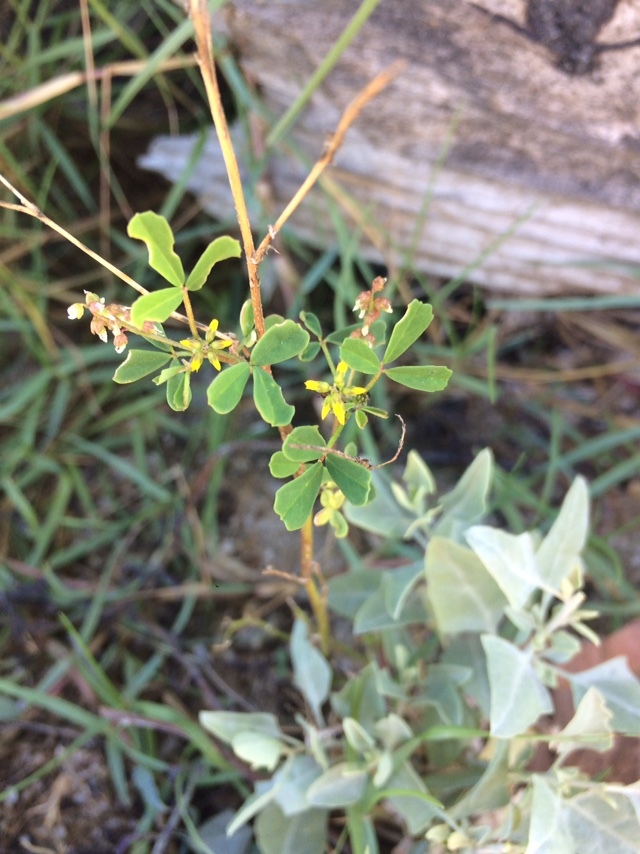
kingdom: Plantae
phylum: Tracheophyta
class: Magnoliopsida
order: Fabales
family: Fabaceae
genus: Melilotus
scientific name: Melilotus indicus
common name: Small melilot
